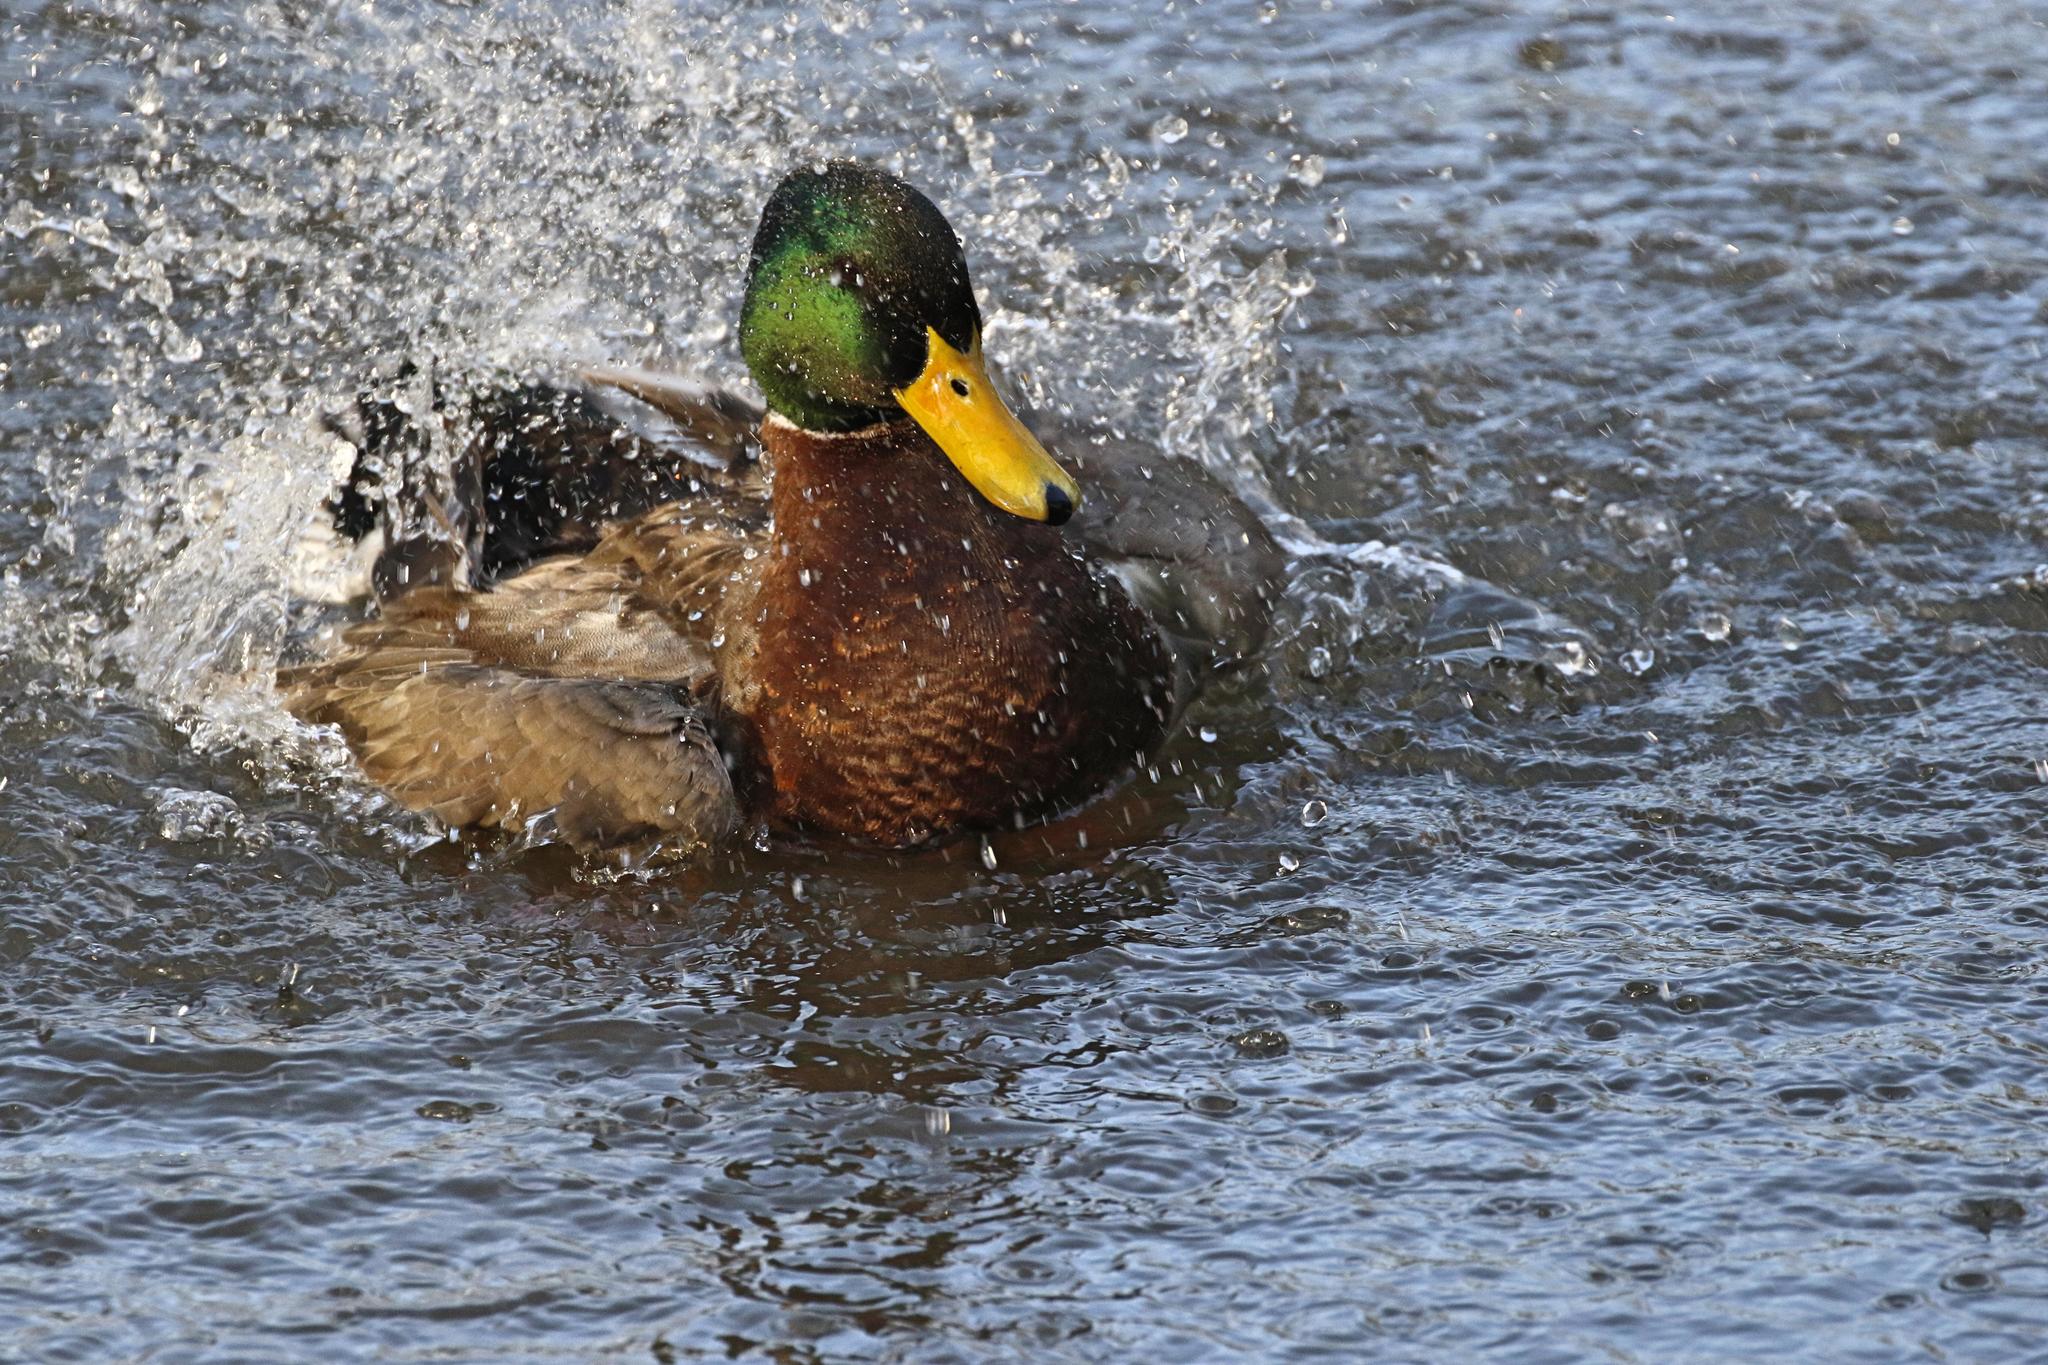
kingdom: Animalia
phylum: Chordata
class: Aves
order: Anseriformes
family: Anatidae
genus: Anas
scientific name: Anas platyrhynchos
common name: Mallard
